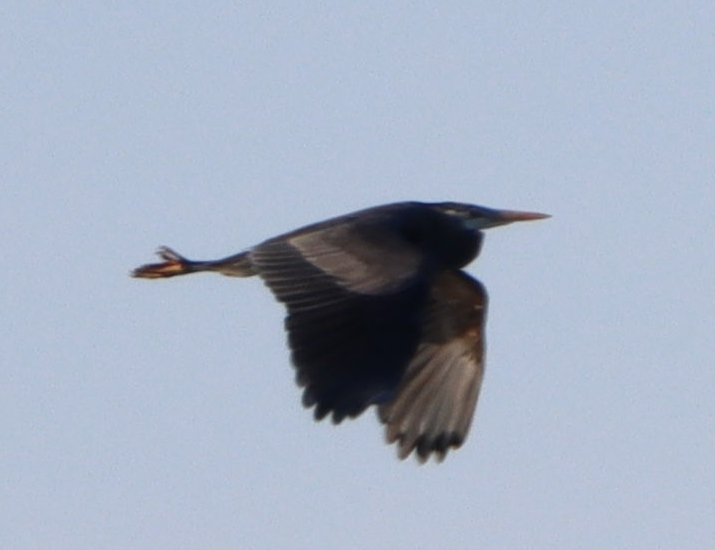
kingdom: Animalia
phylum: Chordata
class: Aves
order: Pelecaniformes
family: Ardeidae
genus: Ardea
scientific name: Ardea herodias
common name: Great blue heron
